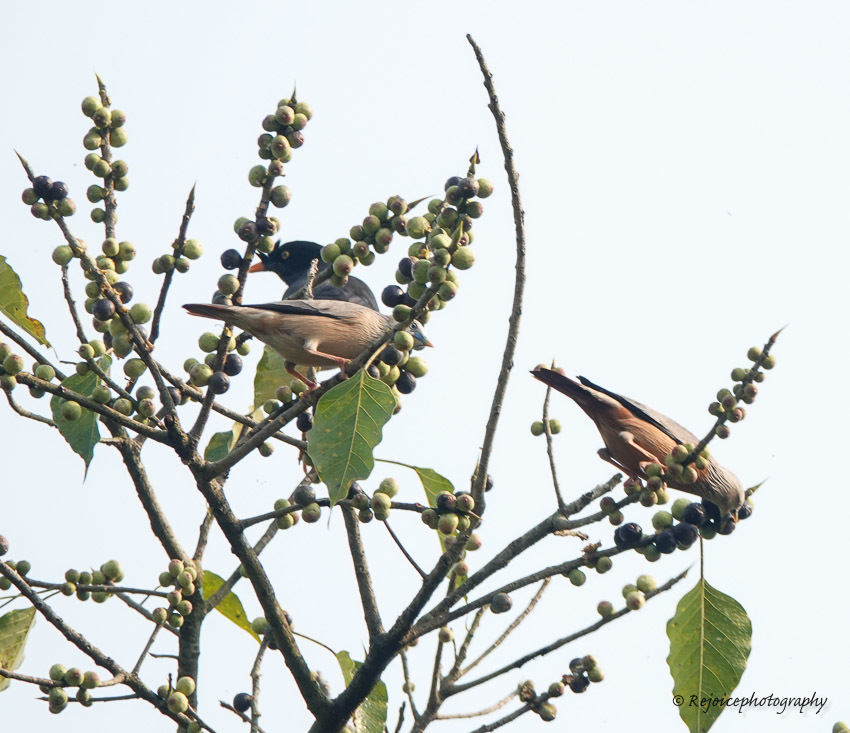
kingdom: Animalia
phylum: Chordata
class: Aves
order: Passeriformes
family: Sturnidae
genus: Sturnia
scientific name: Sturnia malabarica
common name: Chestnut-tailed starling
